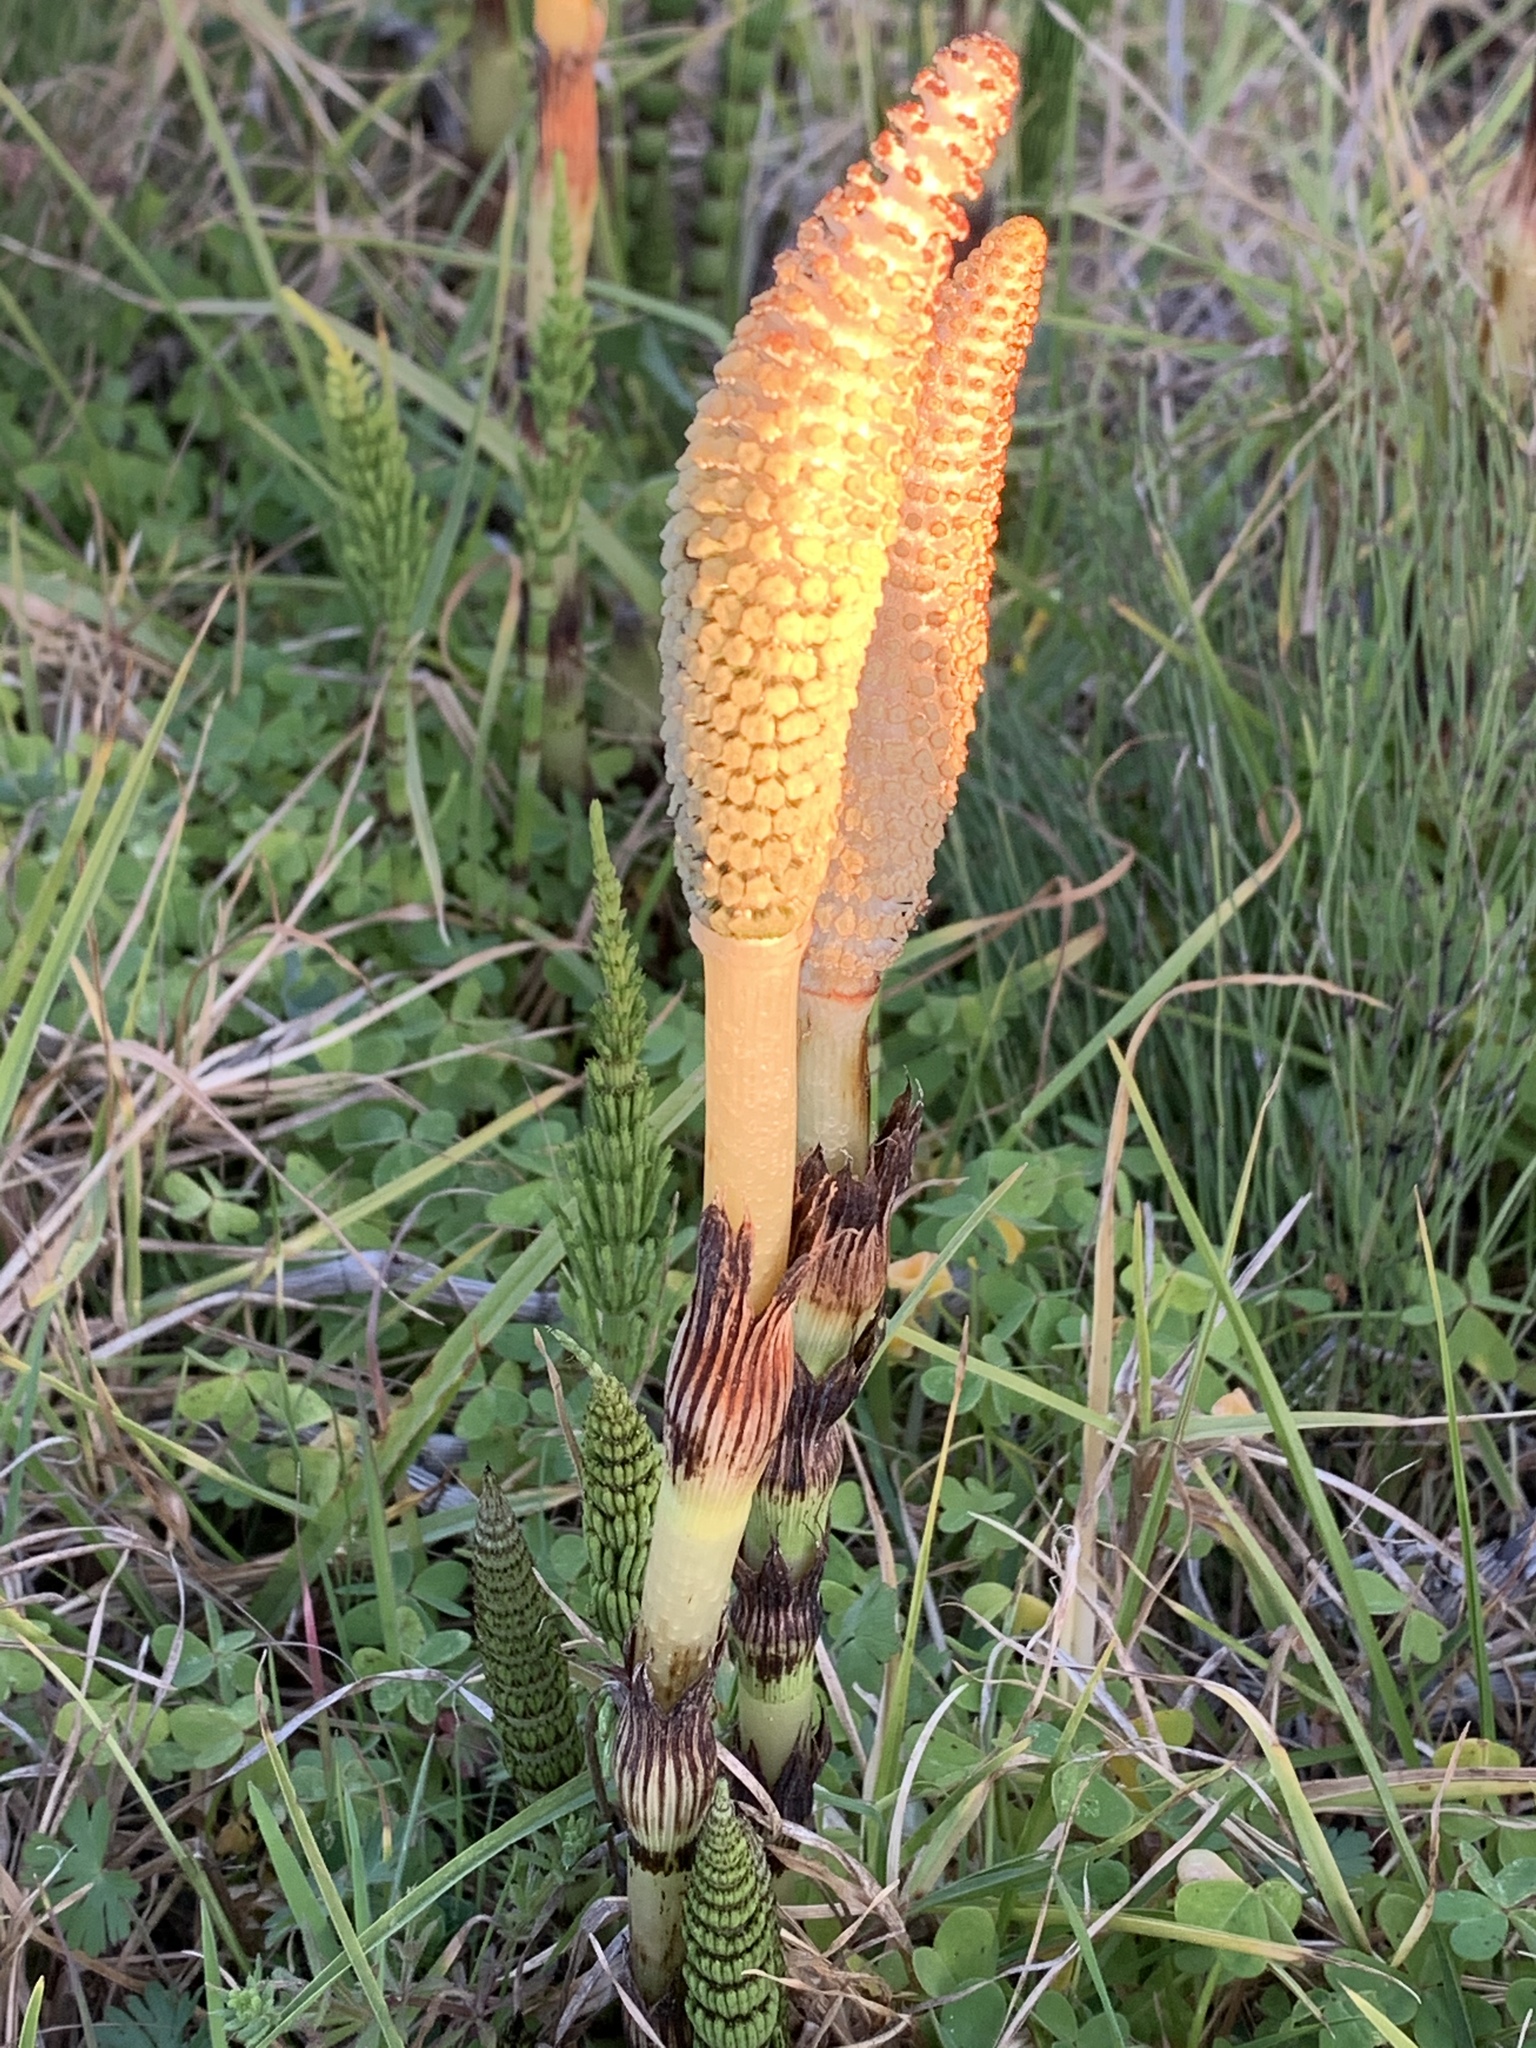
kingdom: Plantae
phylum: Tracheophyta
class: Polypodiopsida
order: Equisetales
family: Equisetaceae
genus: Equisetum
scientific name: Equisetum braunii
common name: Braun's horsetail
